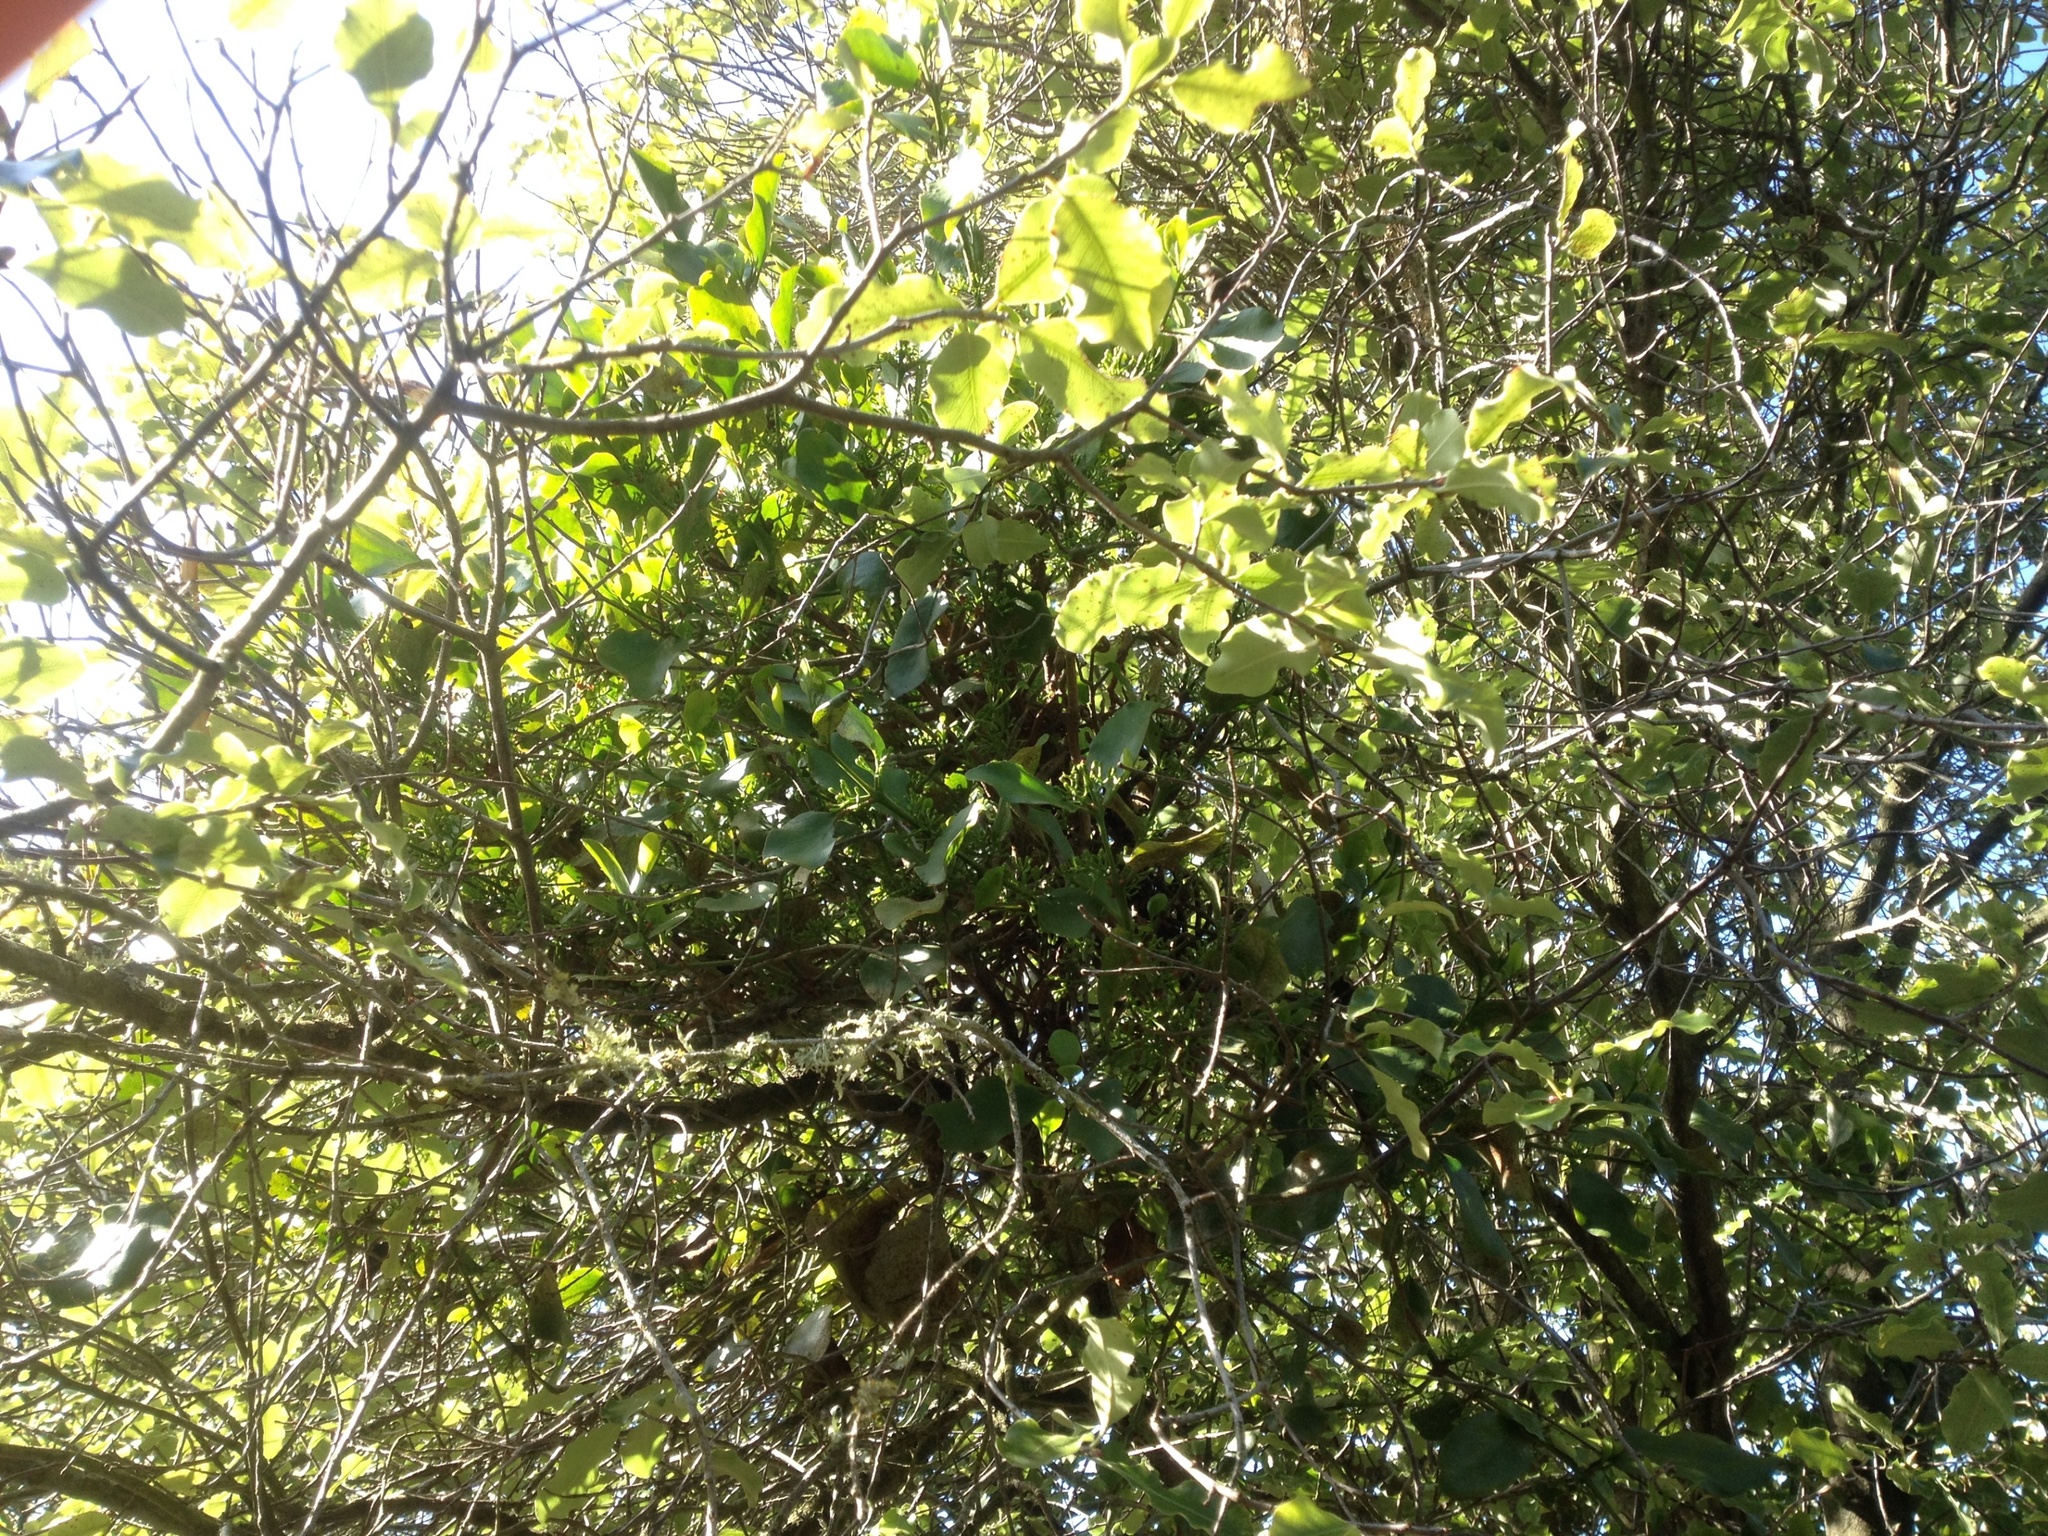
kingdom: Plantae
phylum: Tracheophyta
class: Magnoliopsida
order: Santalales
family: Loranthaceae
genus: Ileostylus
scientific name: Ileostylus micranthus
